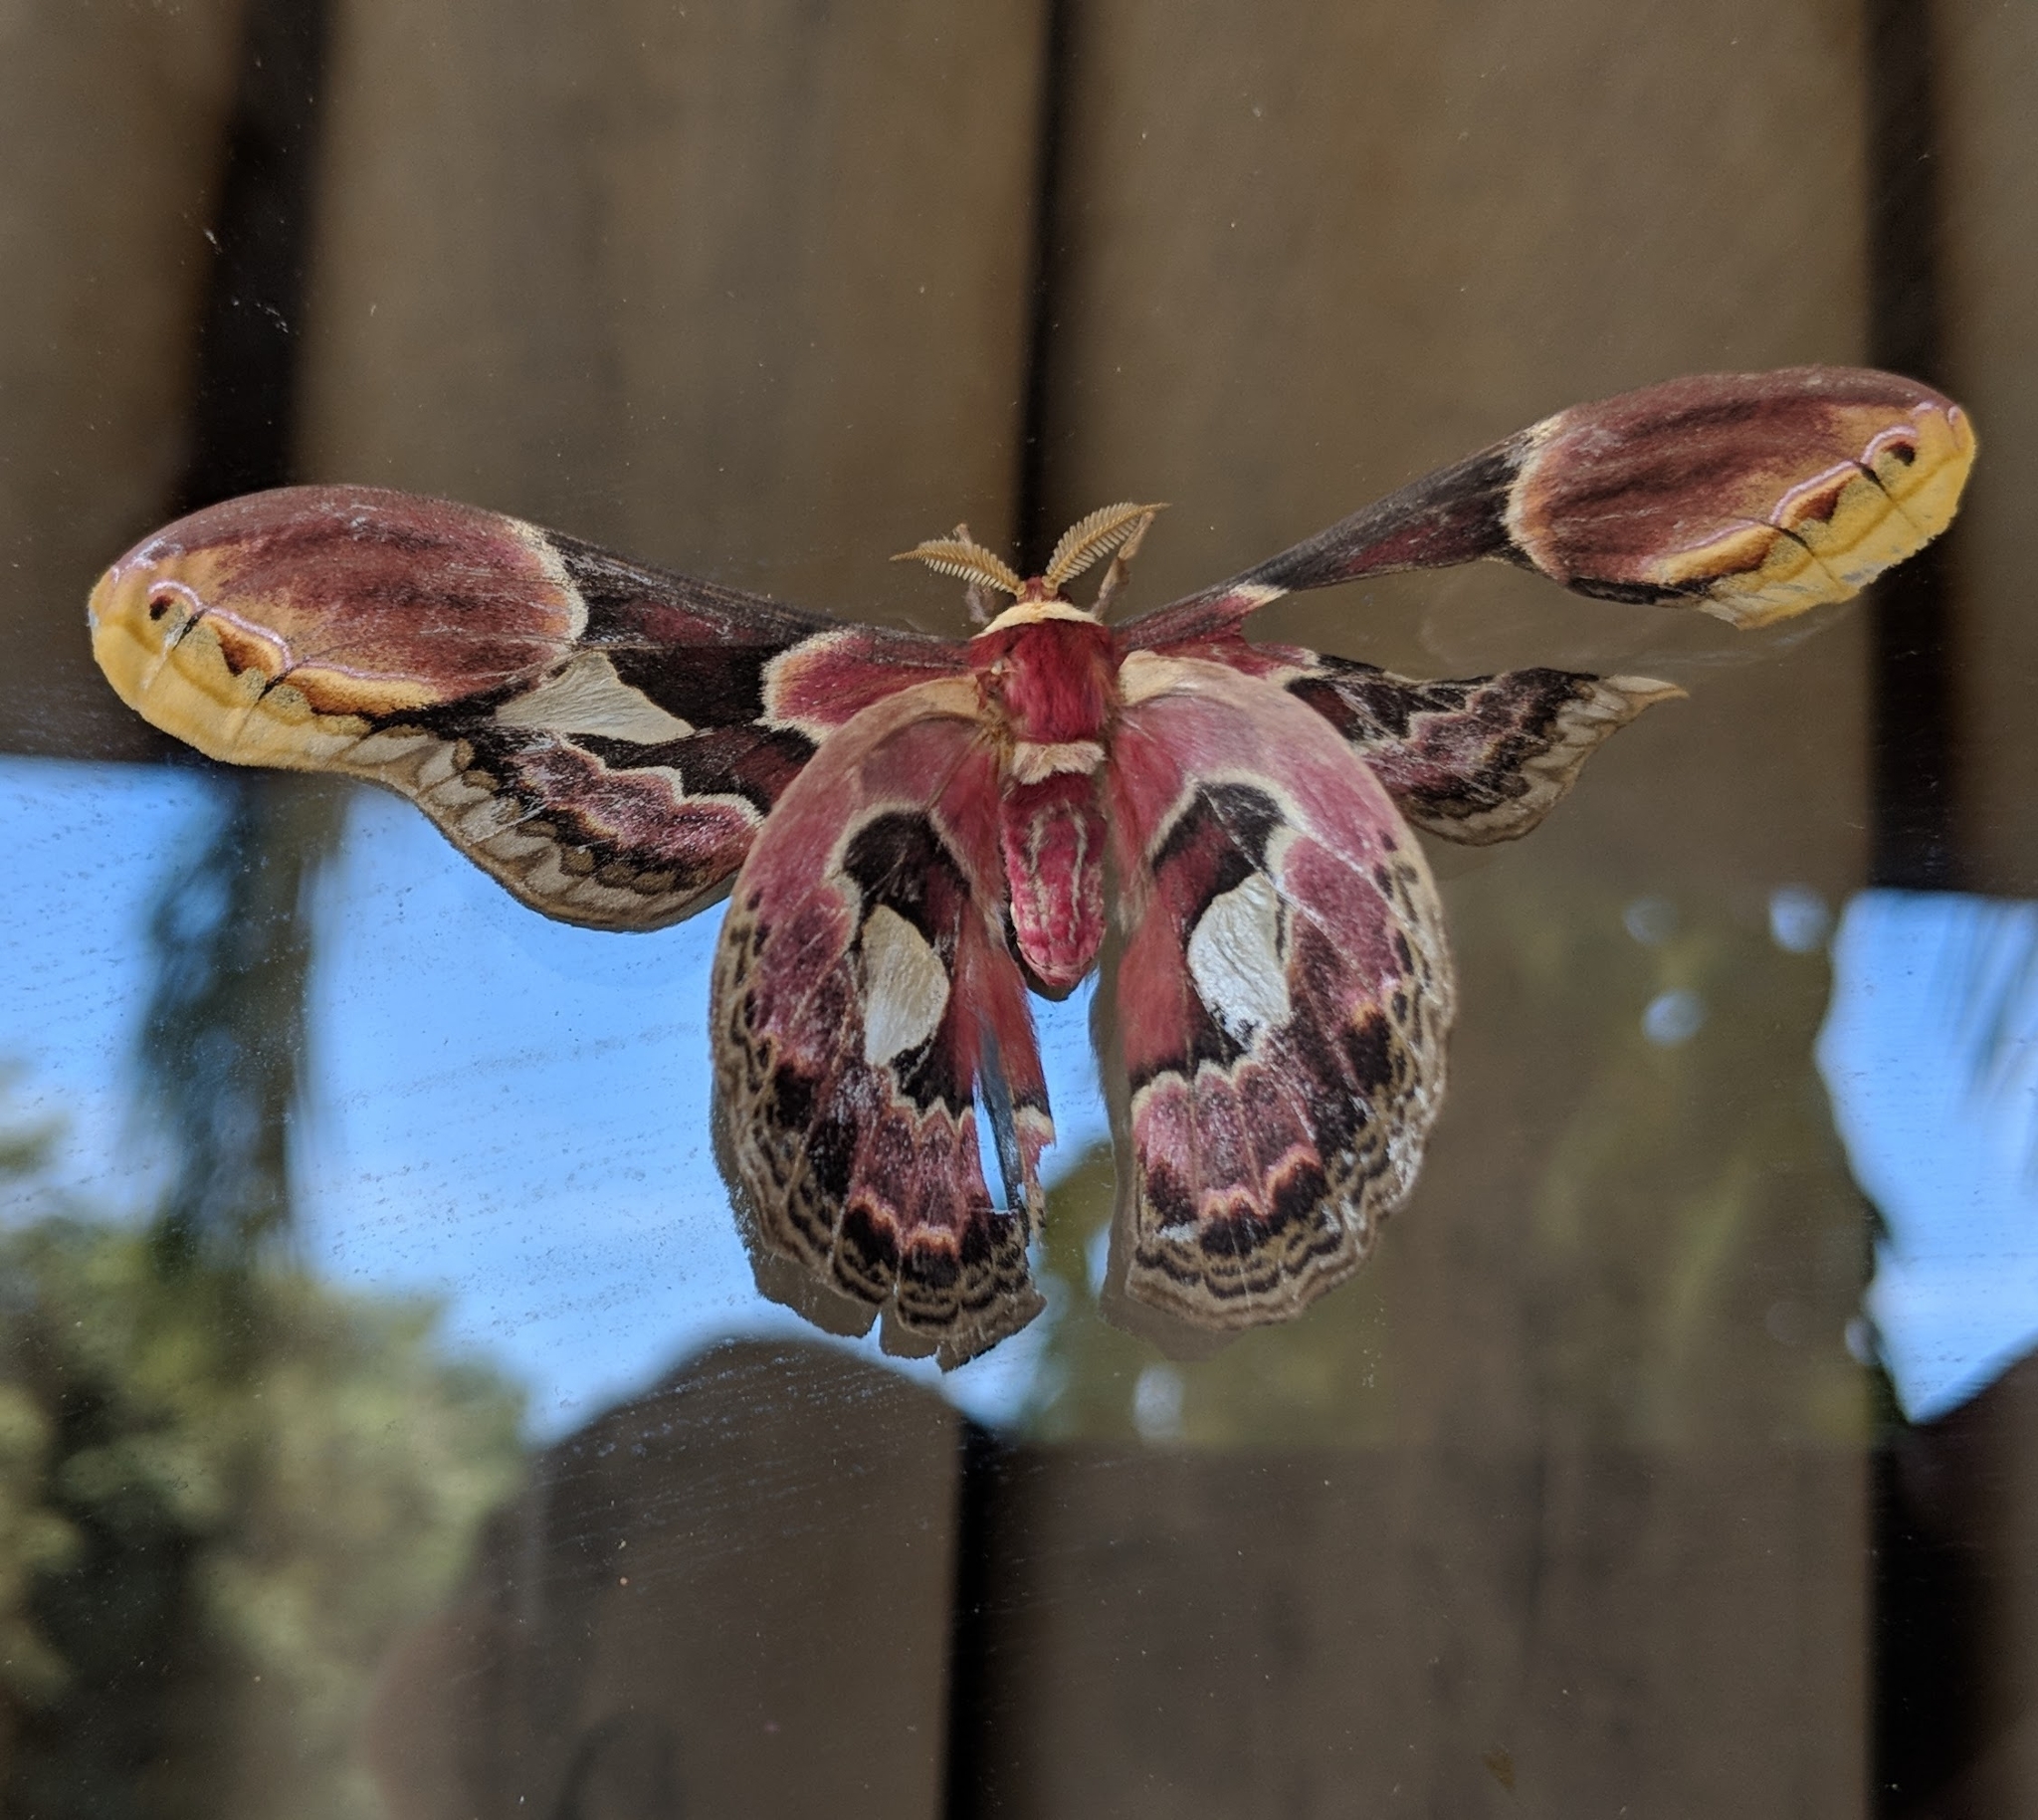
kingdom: Animalia
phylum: Arthropoda
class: Insecta
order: Lepidoptera
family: Saturniidae
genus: Rothschildia
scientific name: Rothschildia erycina
